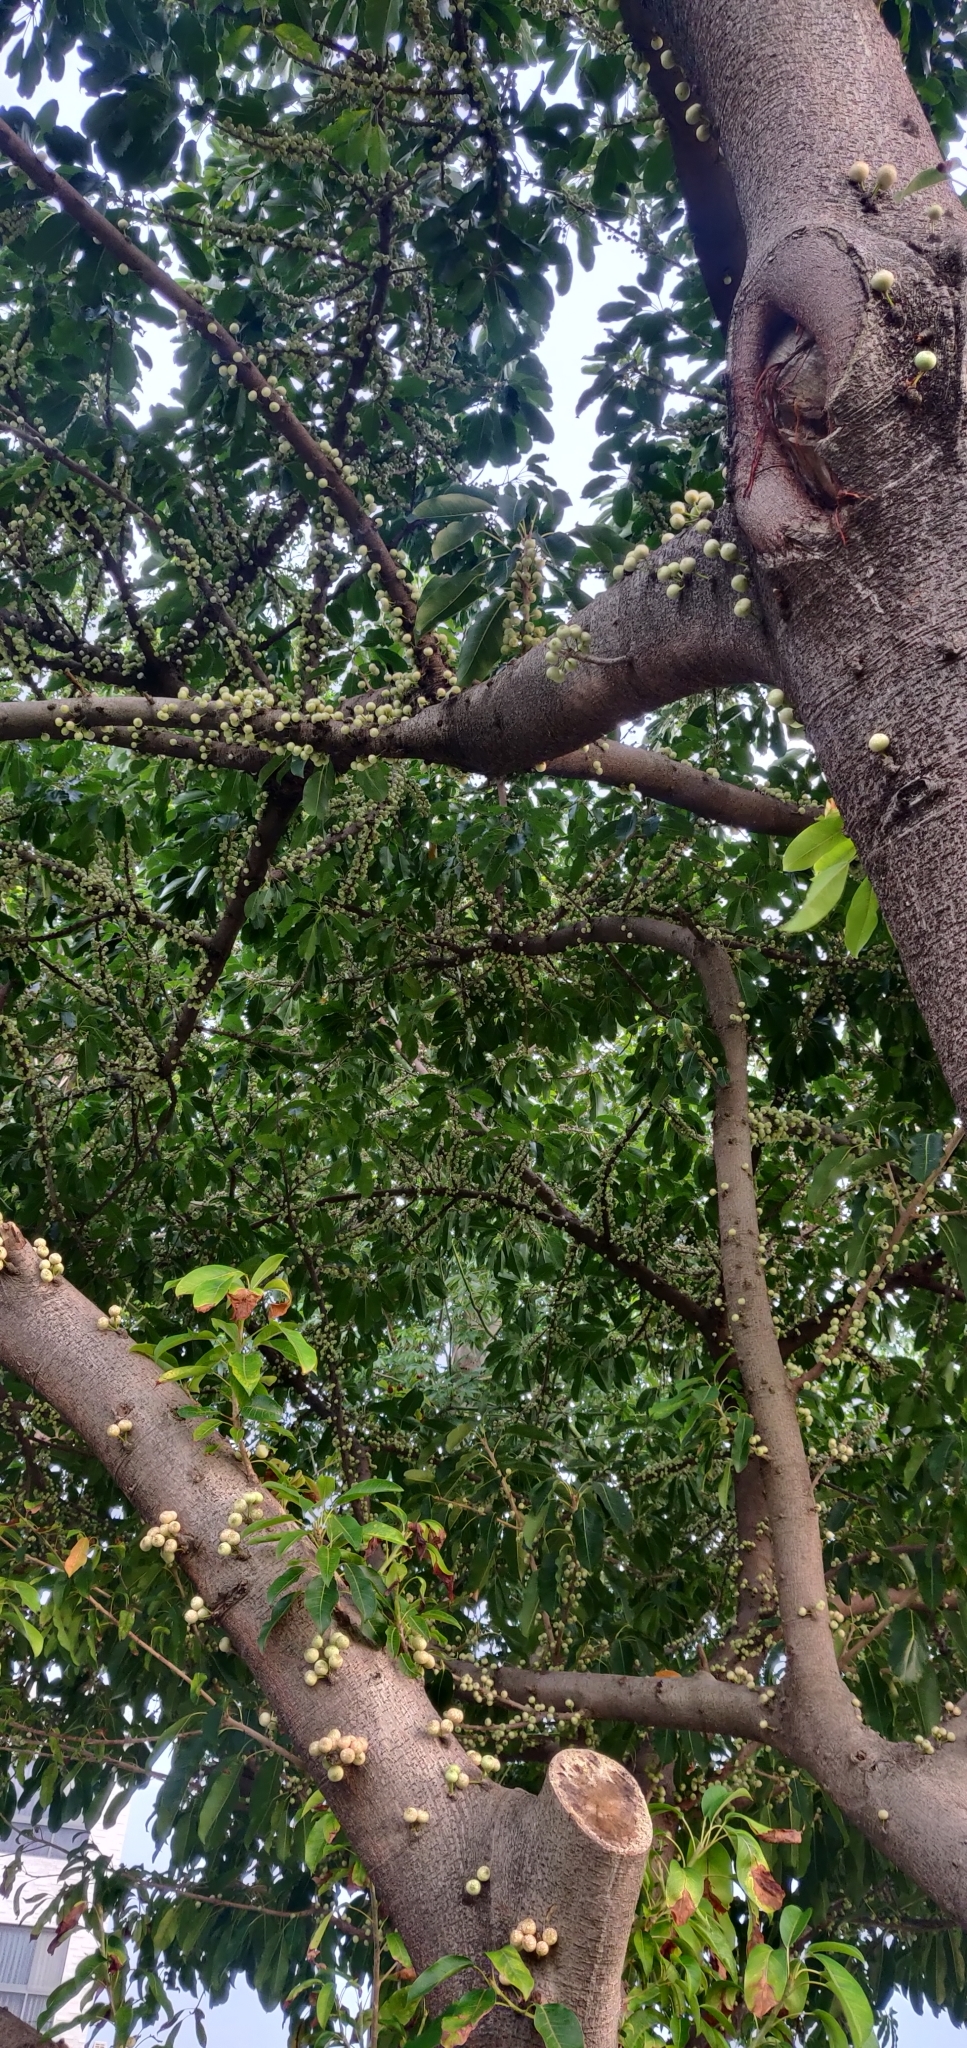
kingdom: Plantae
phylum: Tracheophyta
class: Magnoliopsida
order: Rosales
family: Moraceae
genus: Ficus
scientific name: Ficus subpisocarpa
